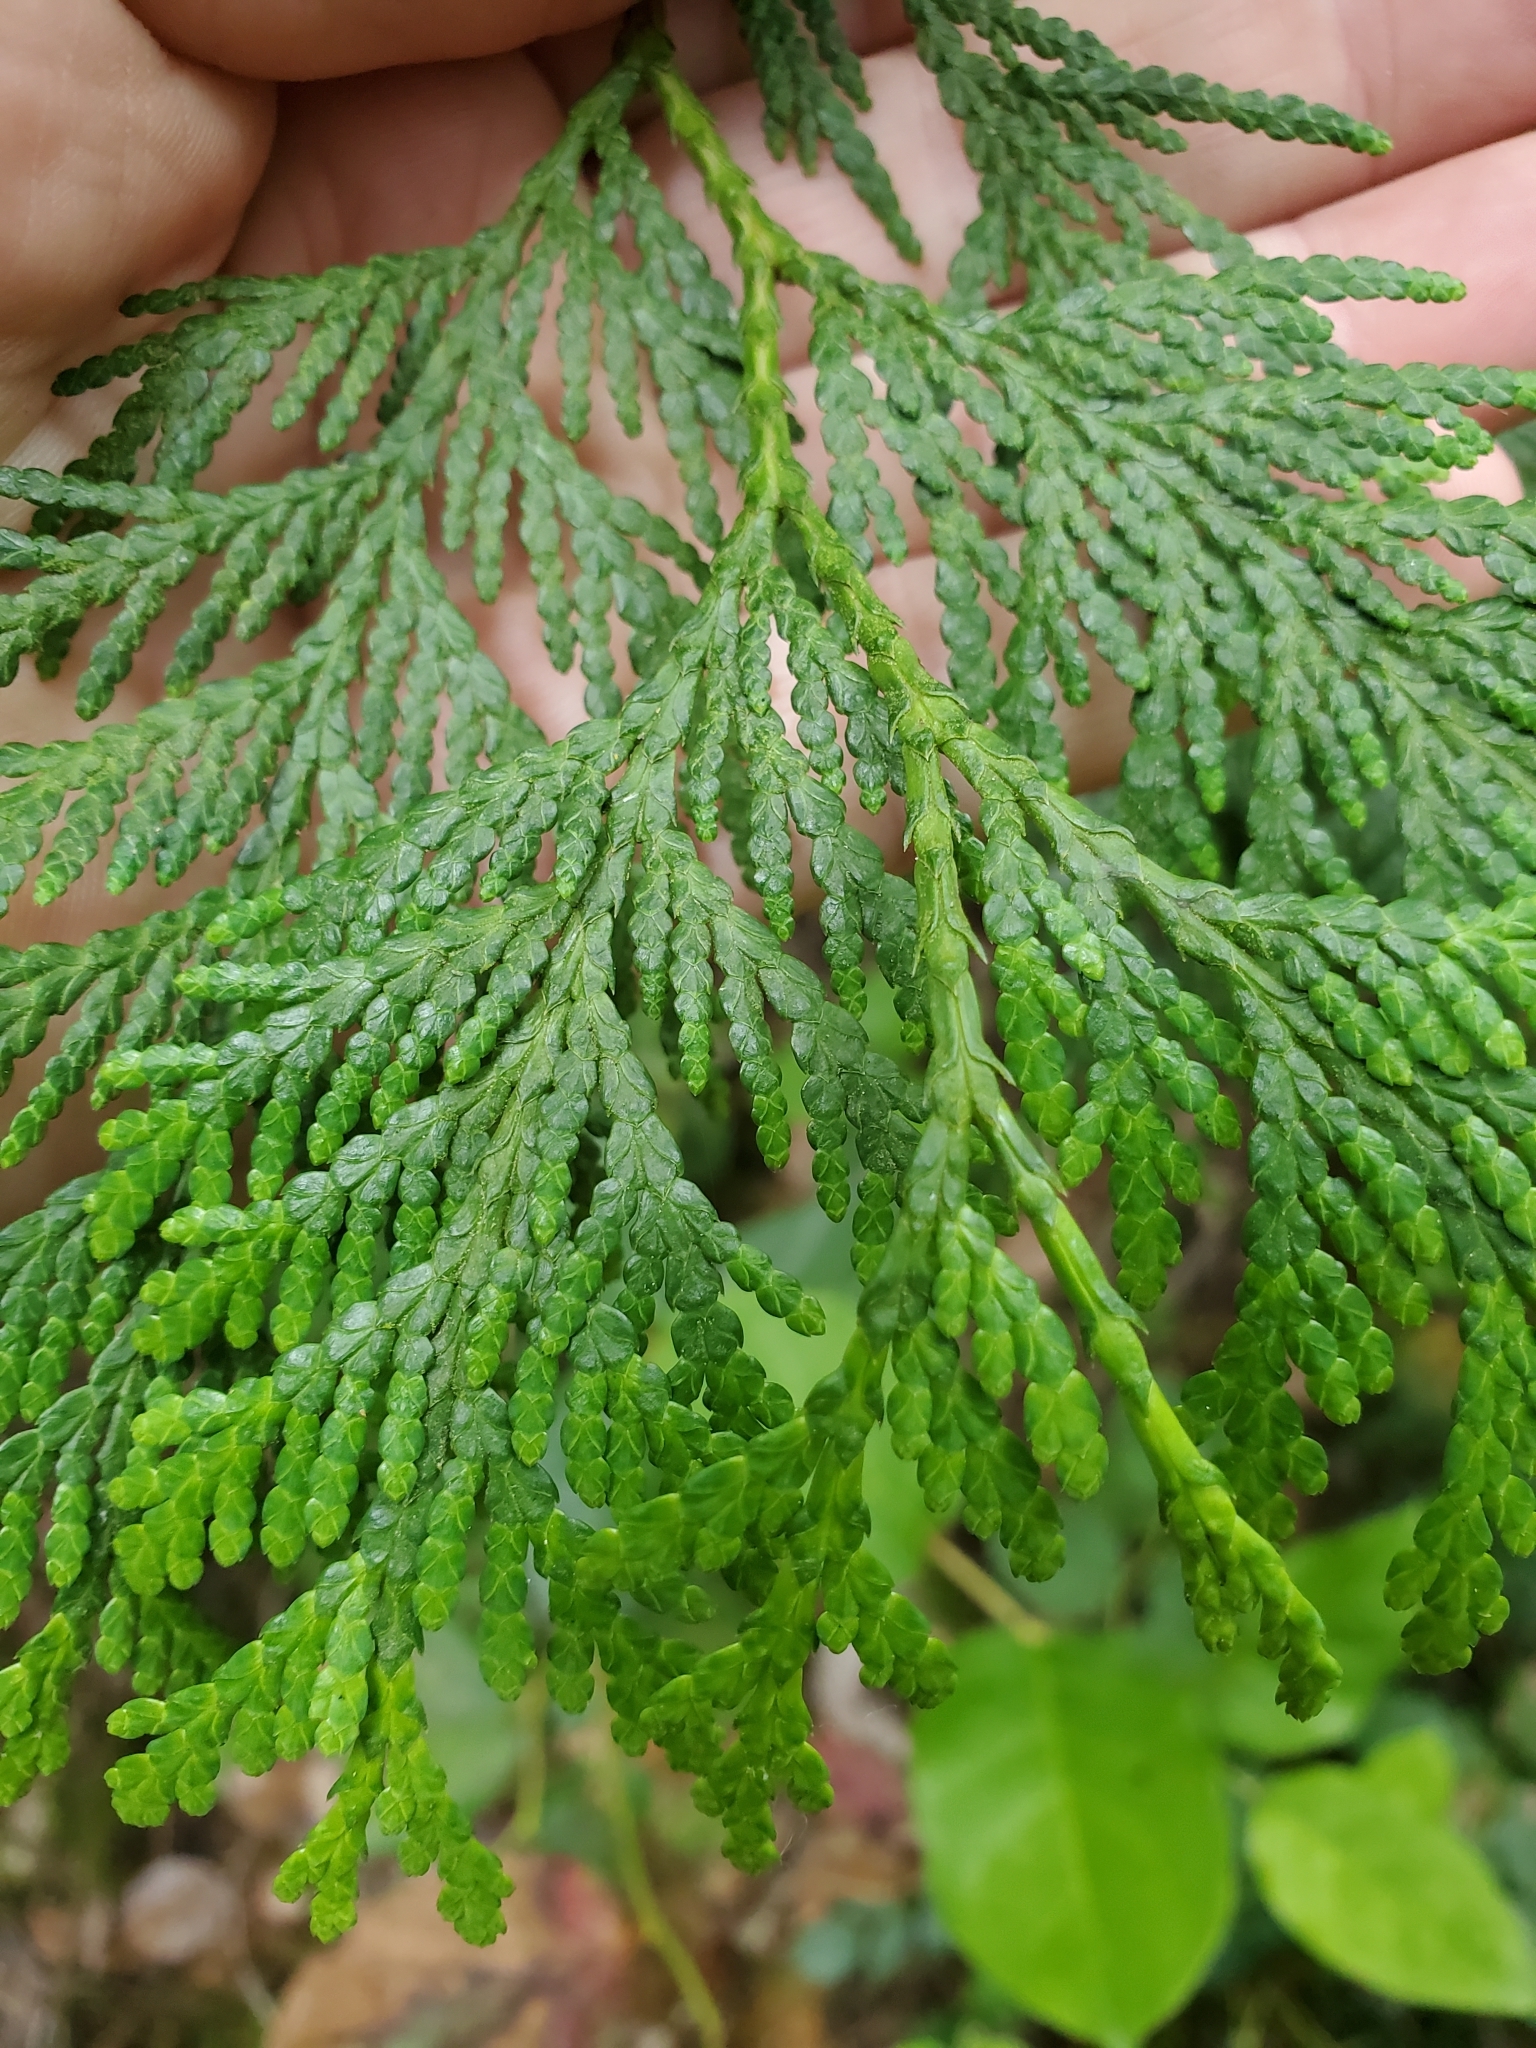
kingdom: Plantae
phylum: Tracheophyta
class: Pinopsida
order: Pinales
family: Cupressaceae
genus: Thuja
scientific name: Thuja plicata
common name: Western red-cedar
